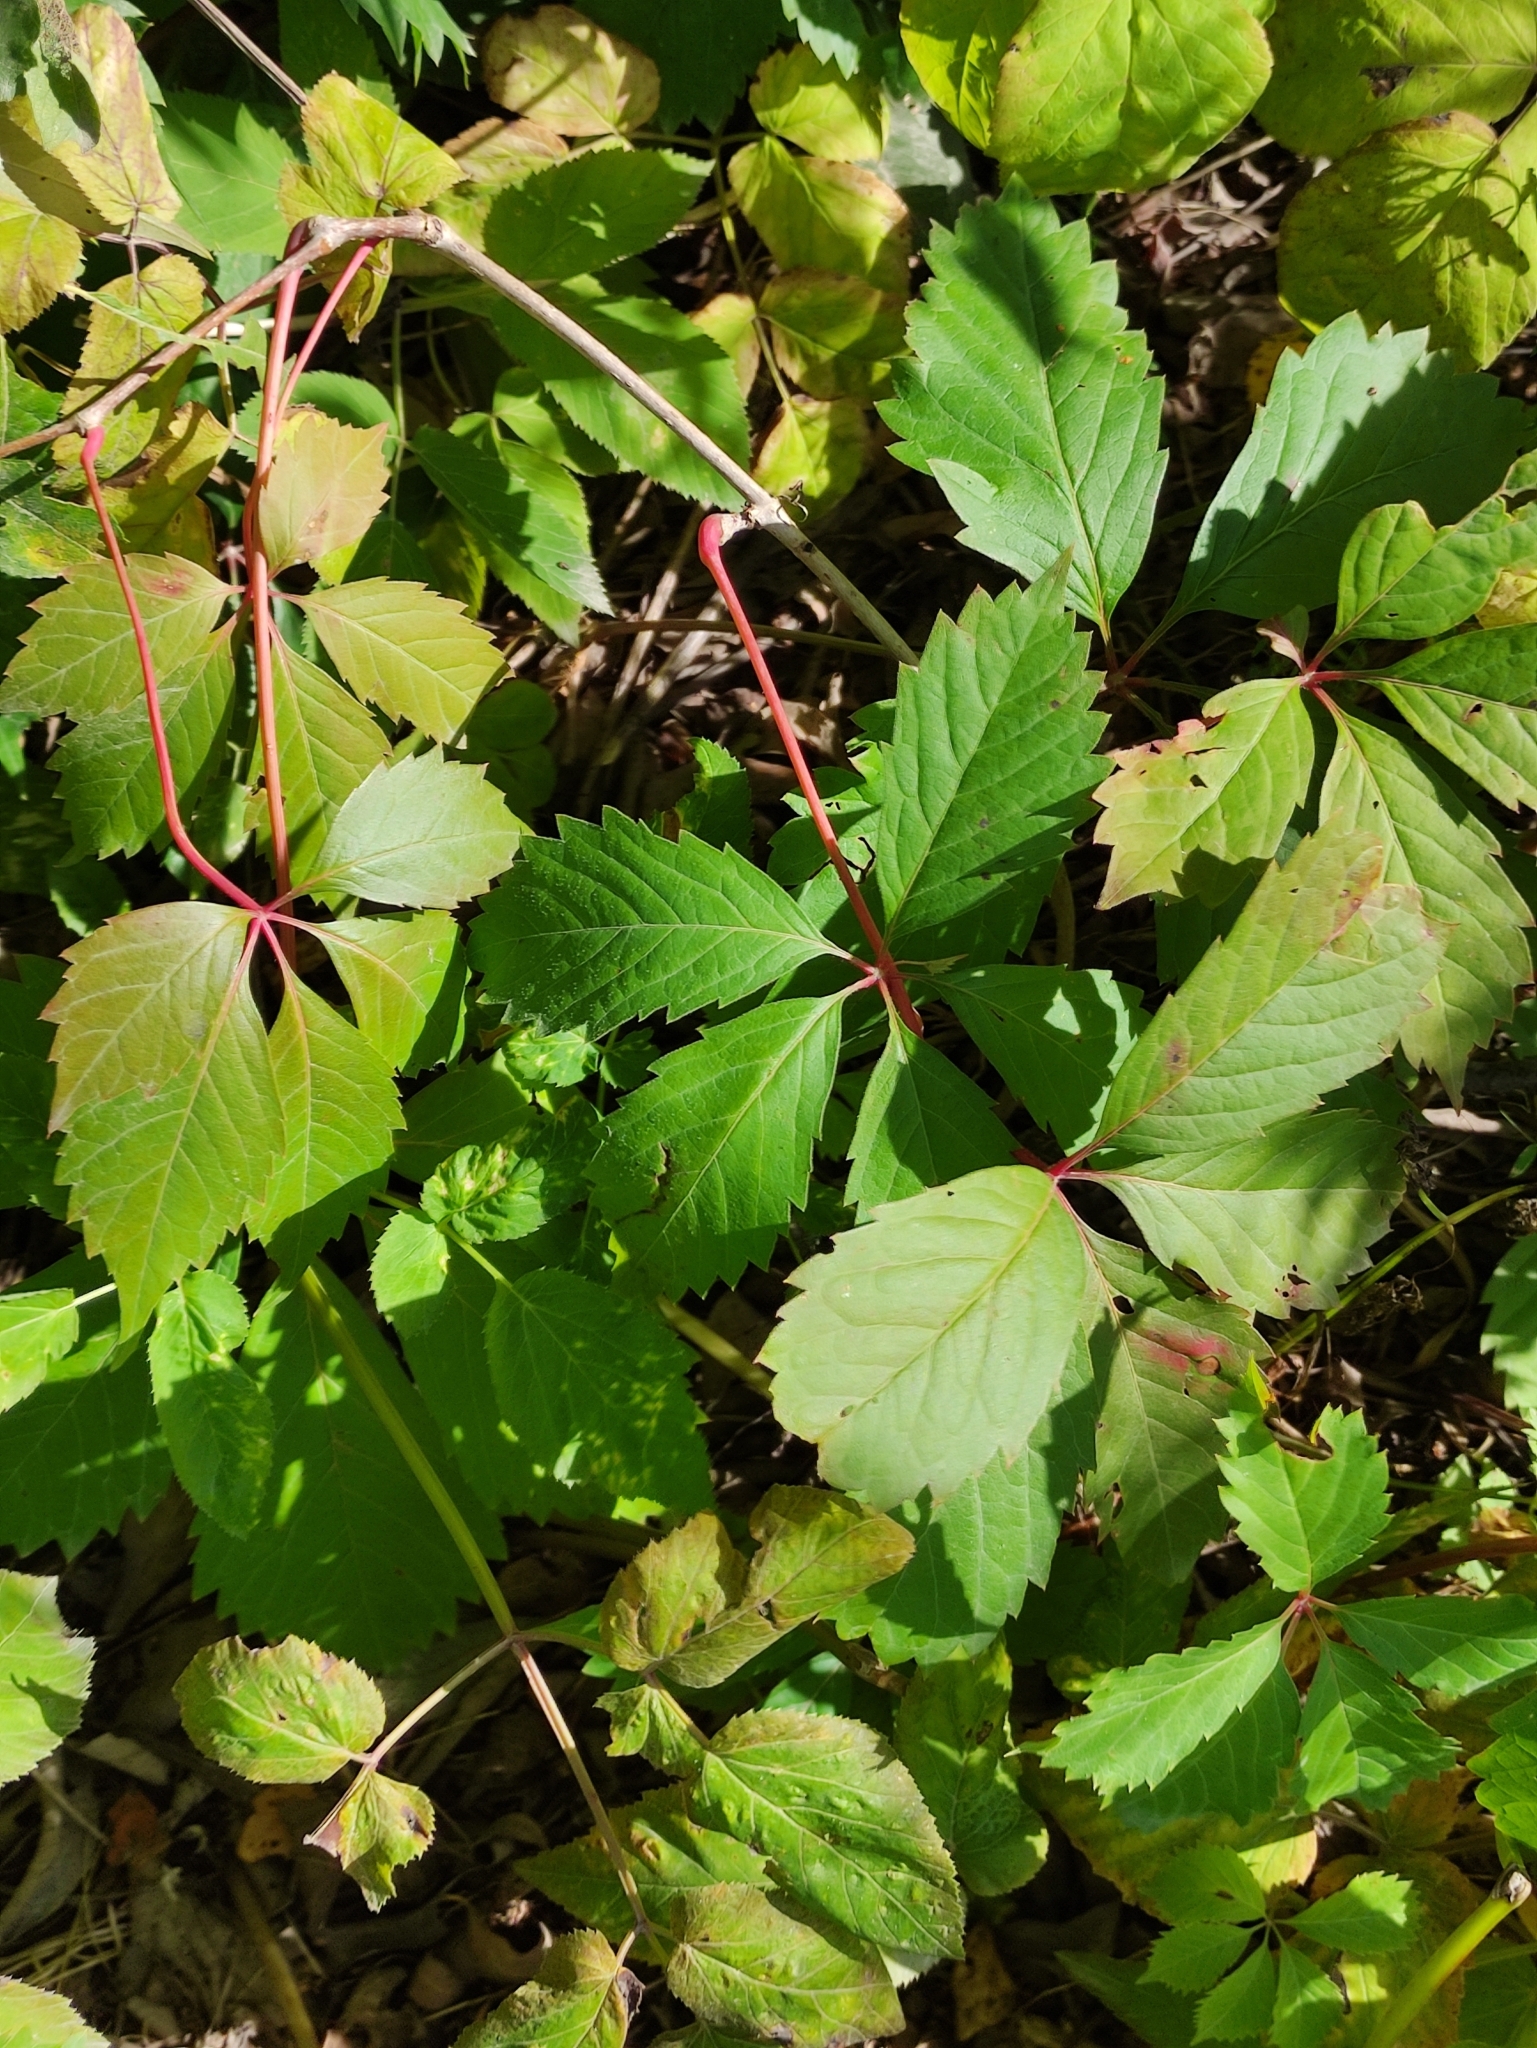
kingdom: Plantae
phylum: Tracheophyta
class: Magnoliopsida
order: Vitales
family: Vitaceae
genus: Parthenocissus
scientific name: Parthenocissus inserta
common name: False virginia-creeper
